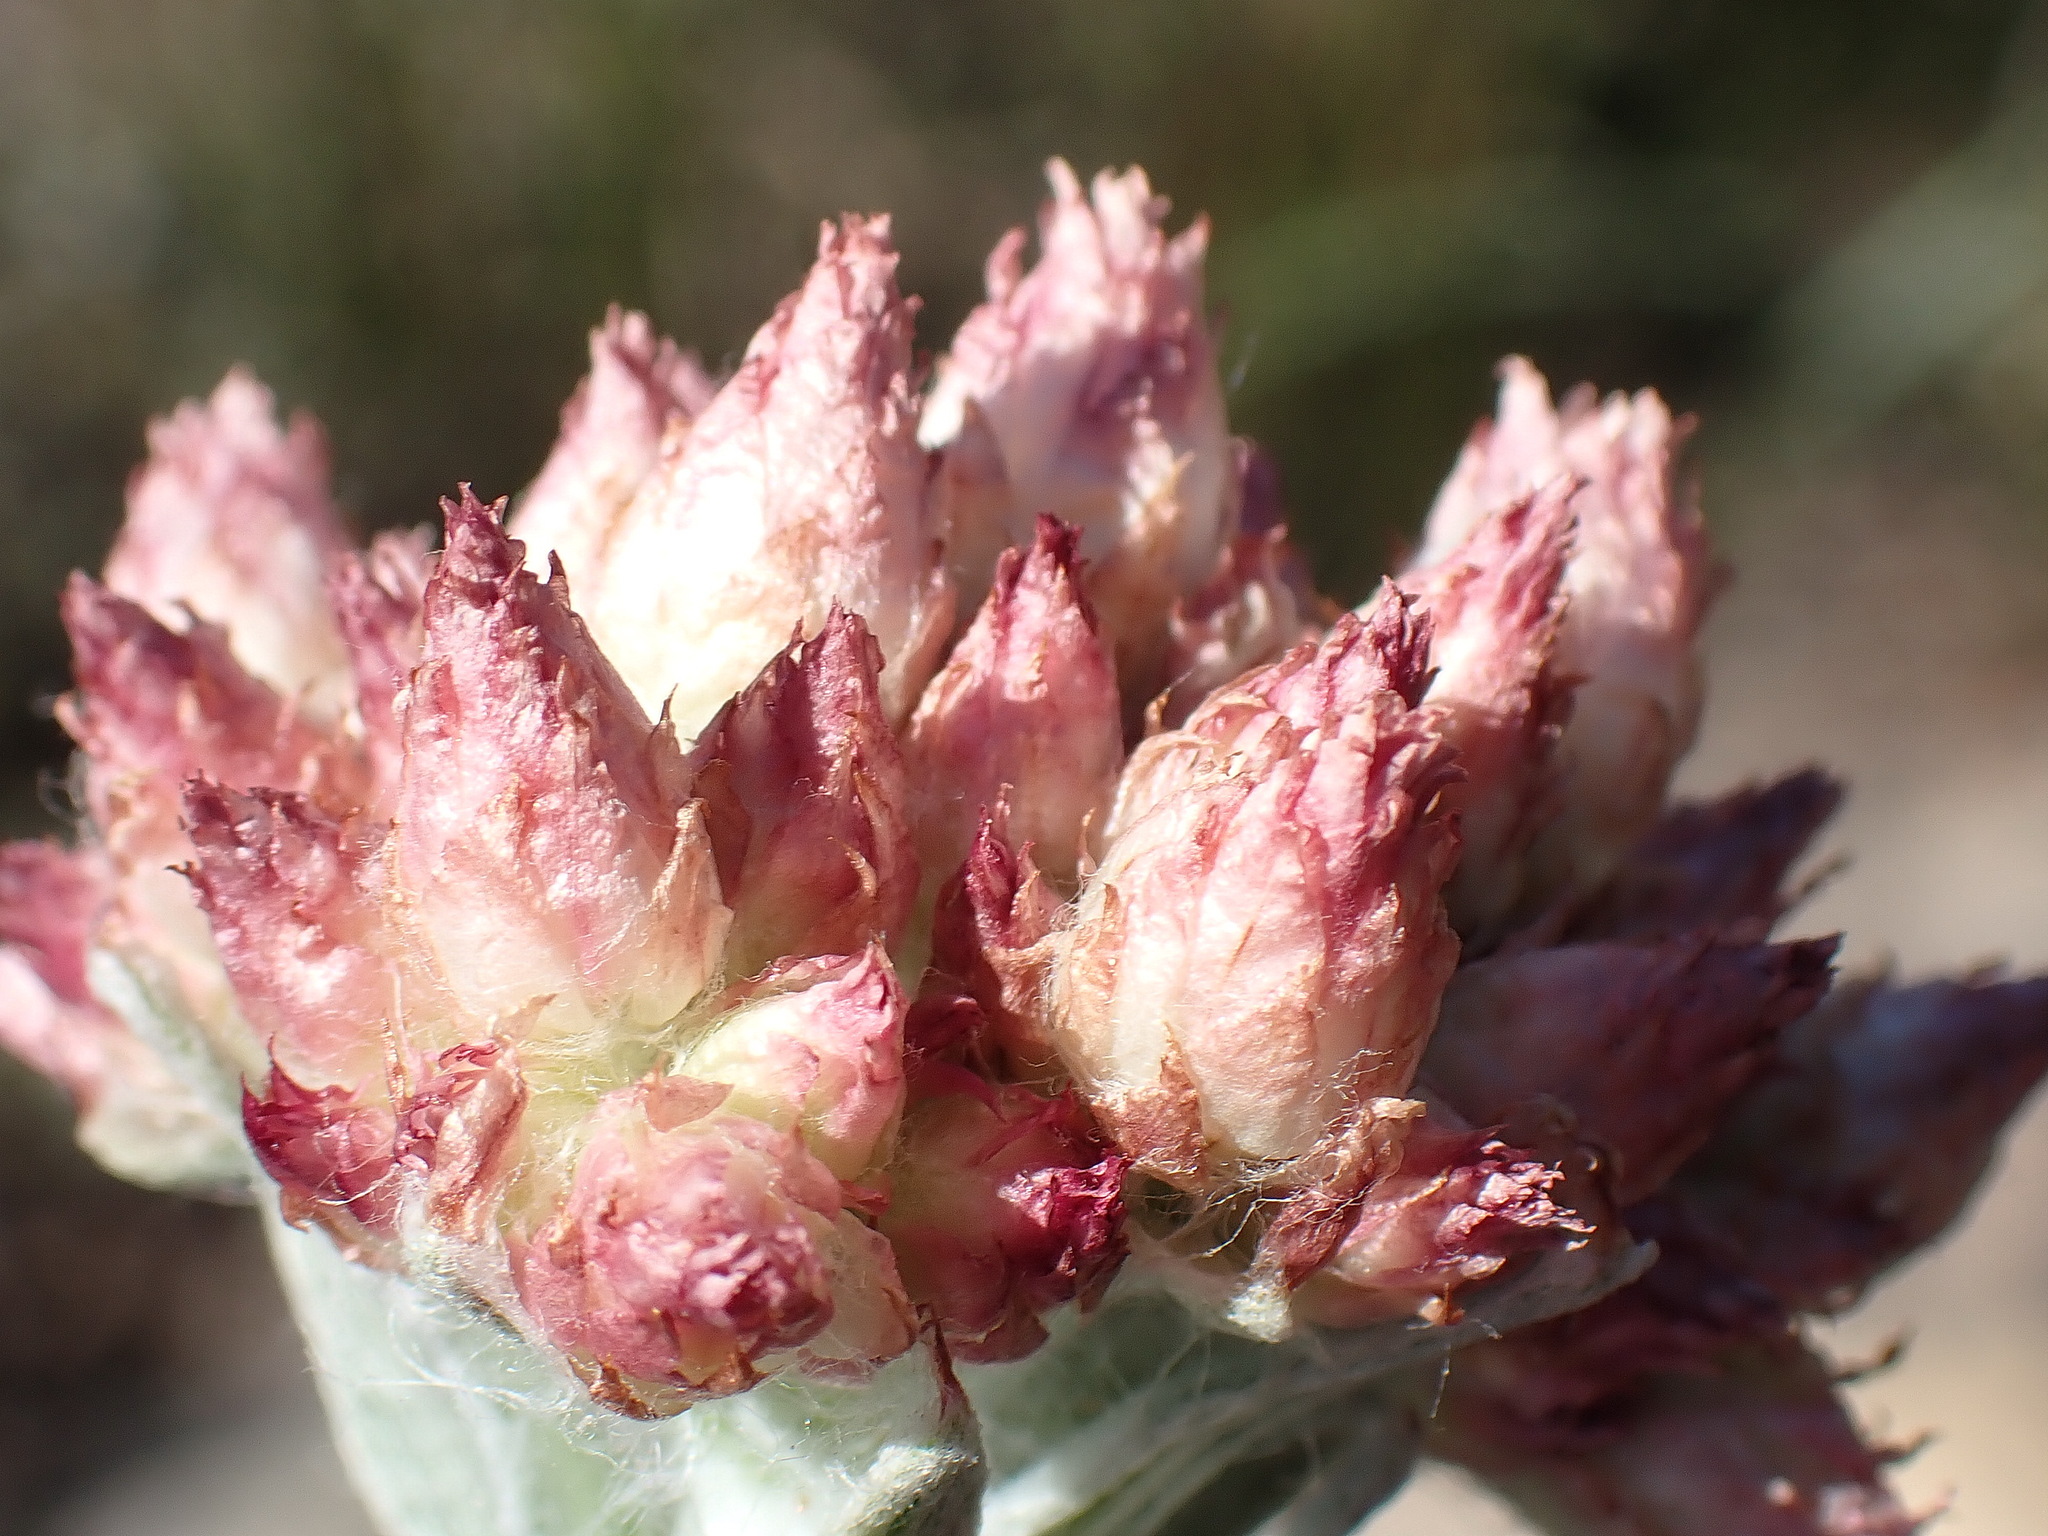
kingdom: Plantae
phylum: Tracheophyta
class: Magnoliopsida
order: Asterales
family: Asteraceae
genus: Helichrysum
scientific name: Helichrysum appendiculatum
